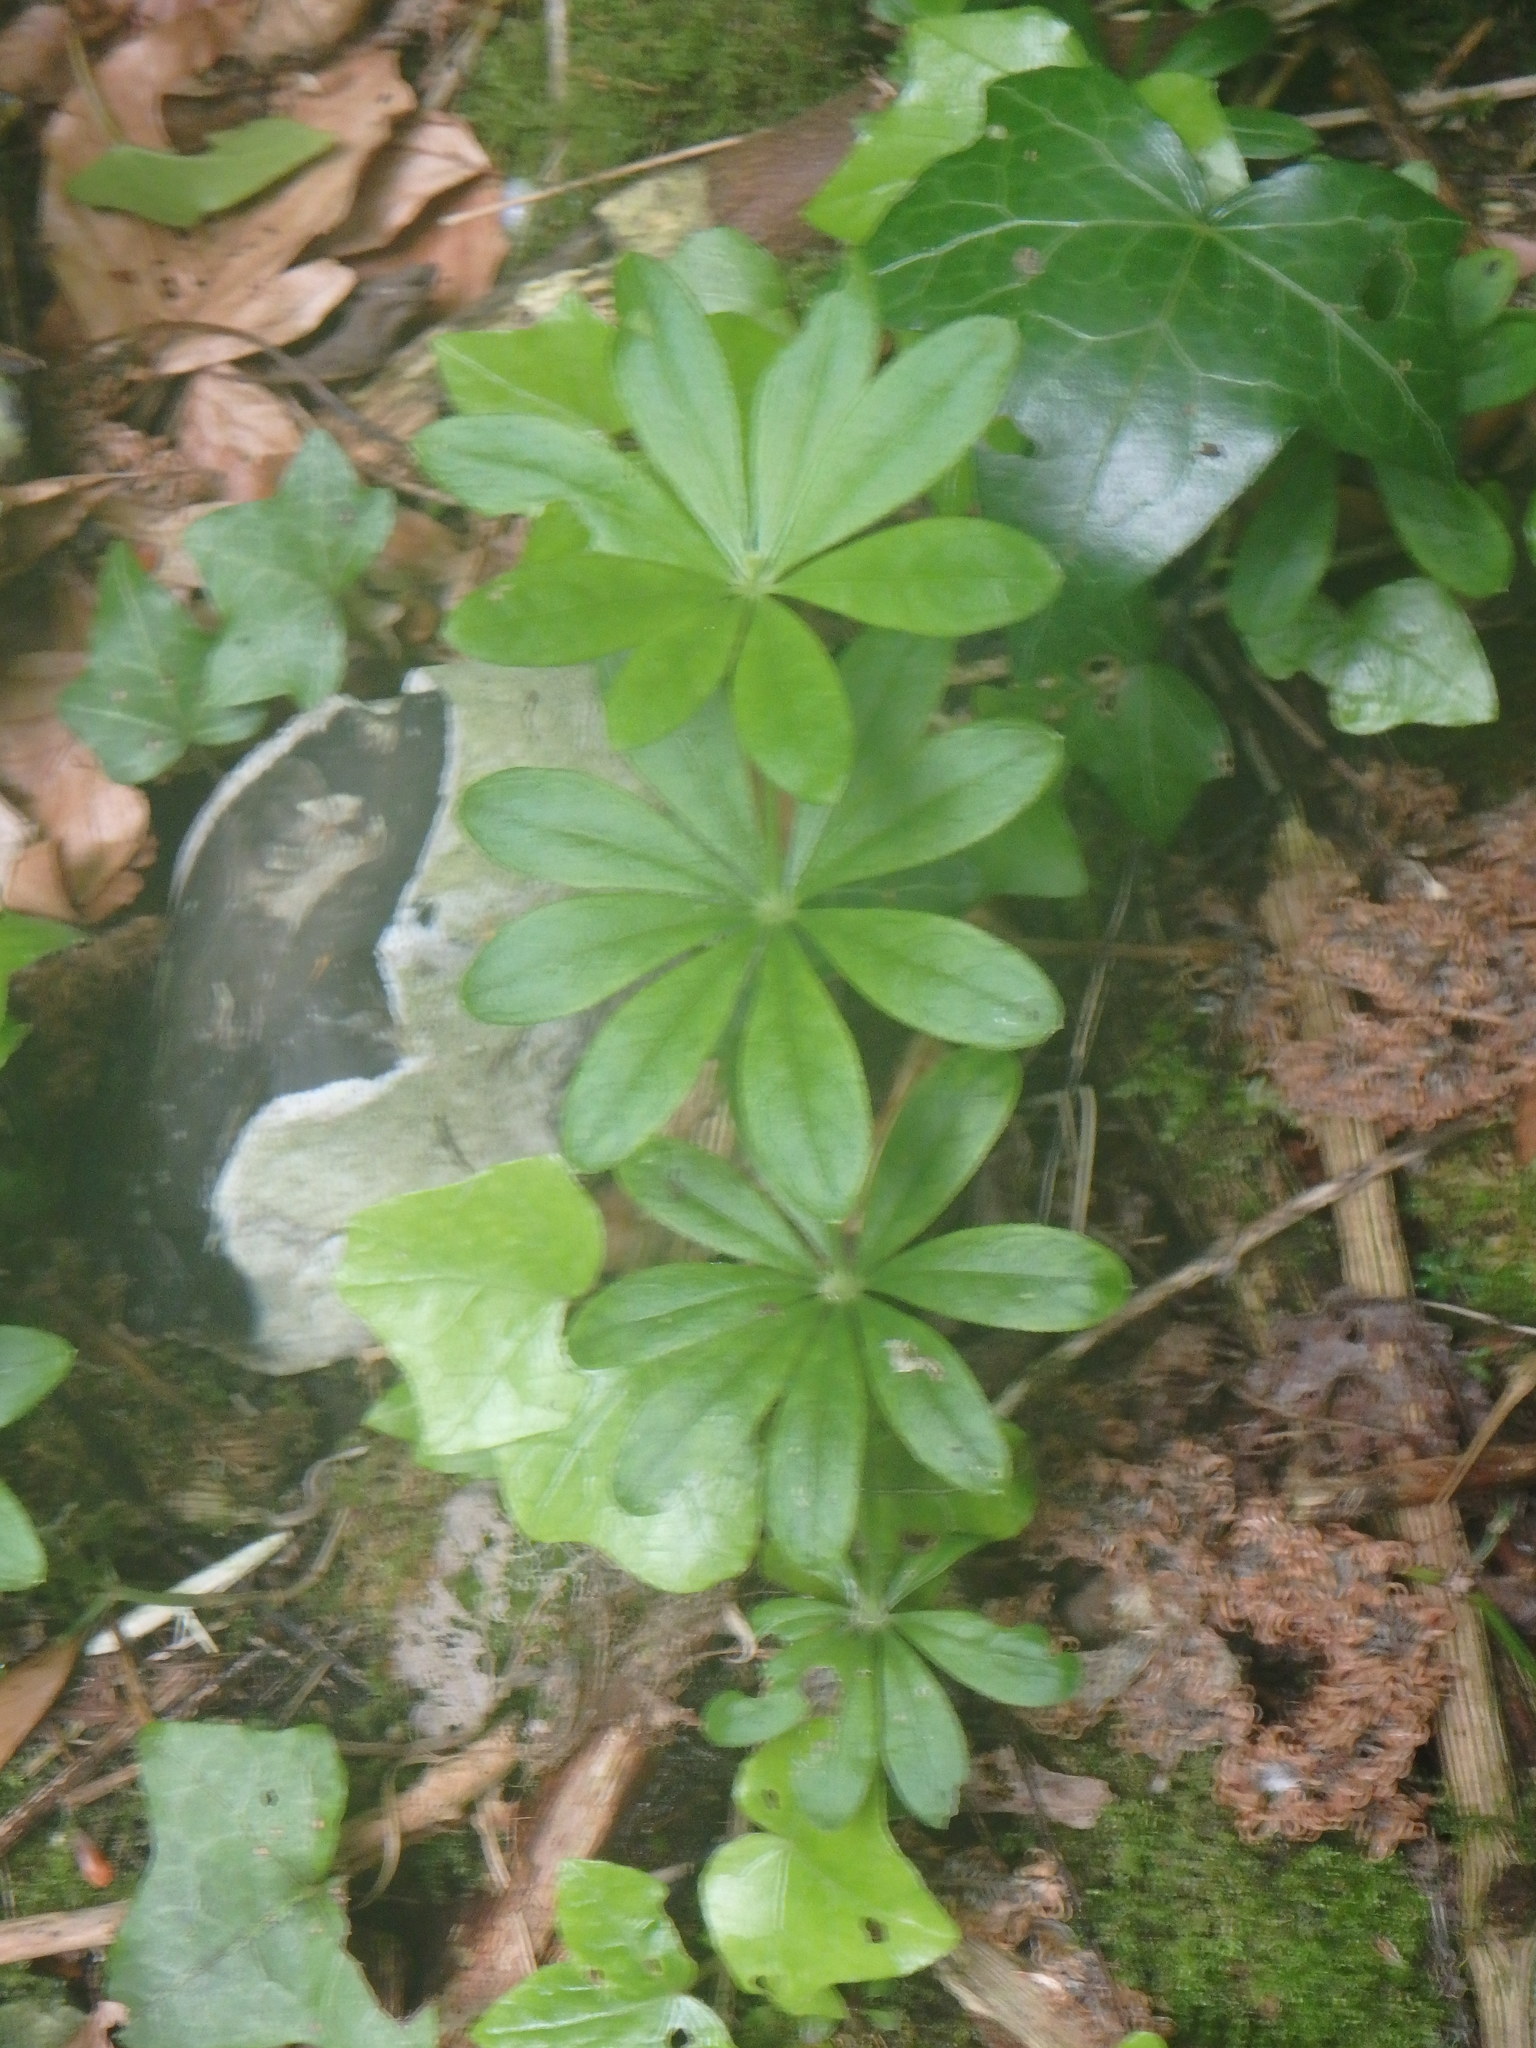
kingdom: Plantae
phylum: Tracheophyta
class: Magnoliopsida
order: Gentianales
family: Rubiaceae
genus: Galium
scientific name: Galium odoratum
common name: Sweet woodruff
